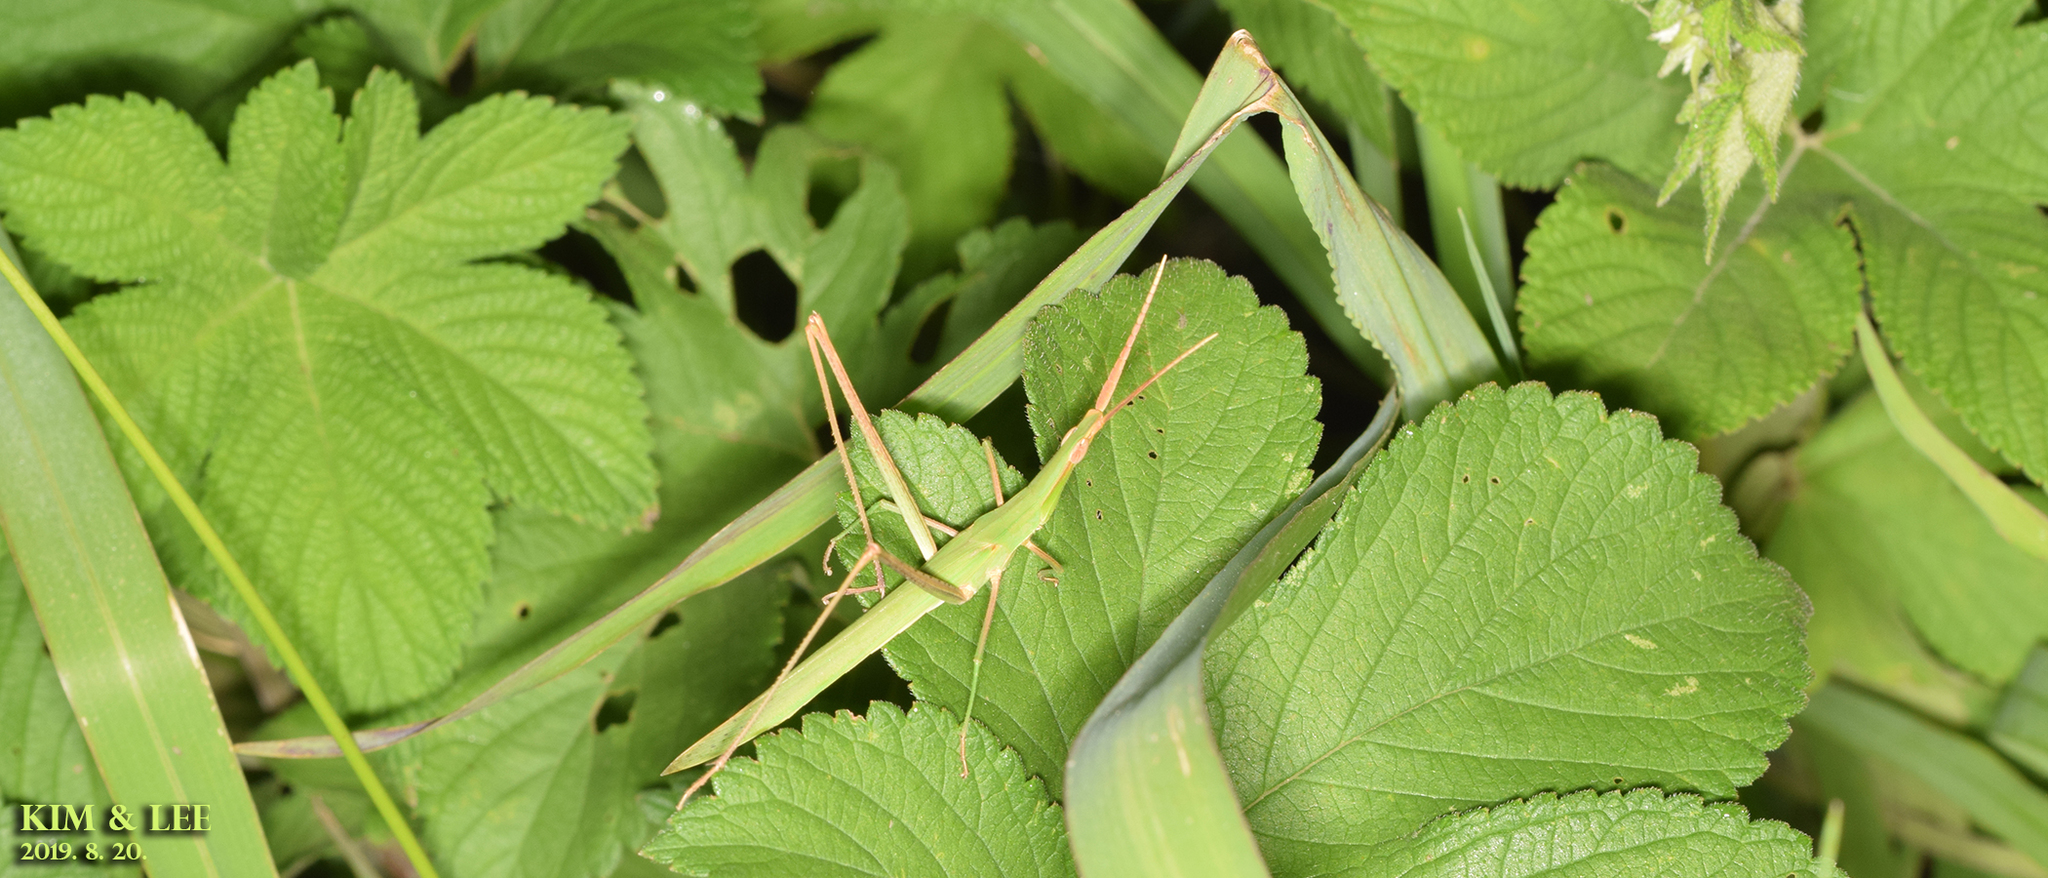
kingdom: Animalia
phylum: Arthropoda
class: Insecta
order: Orthoptera
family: Acrididae
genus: Acrida
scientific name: Acrida cinerea
